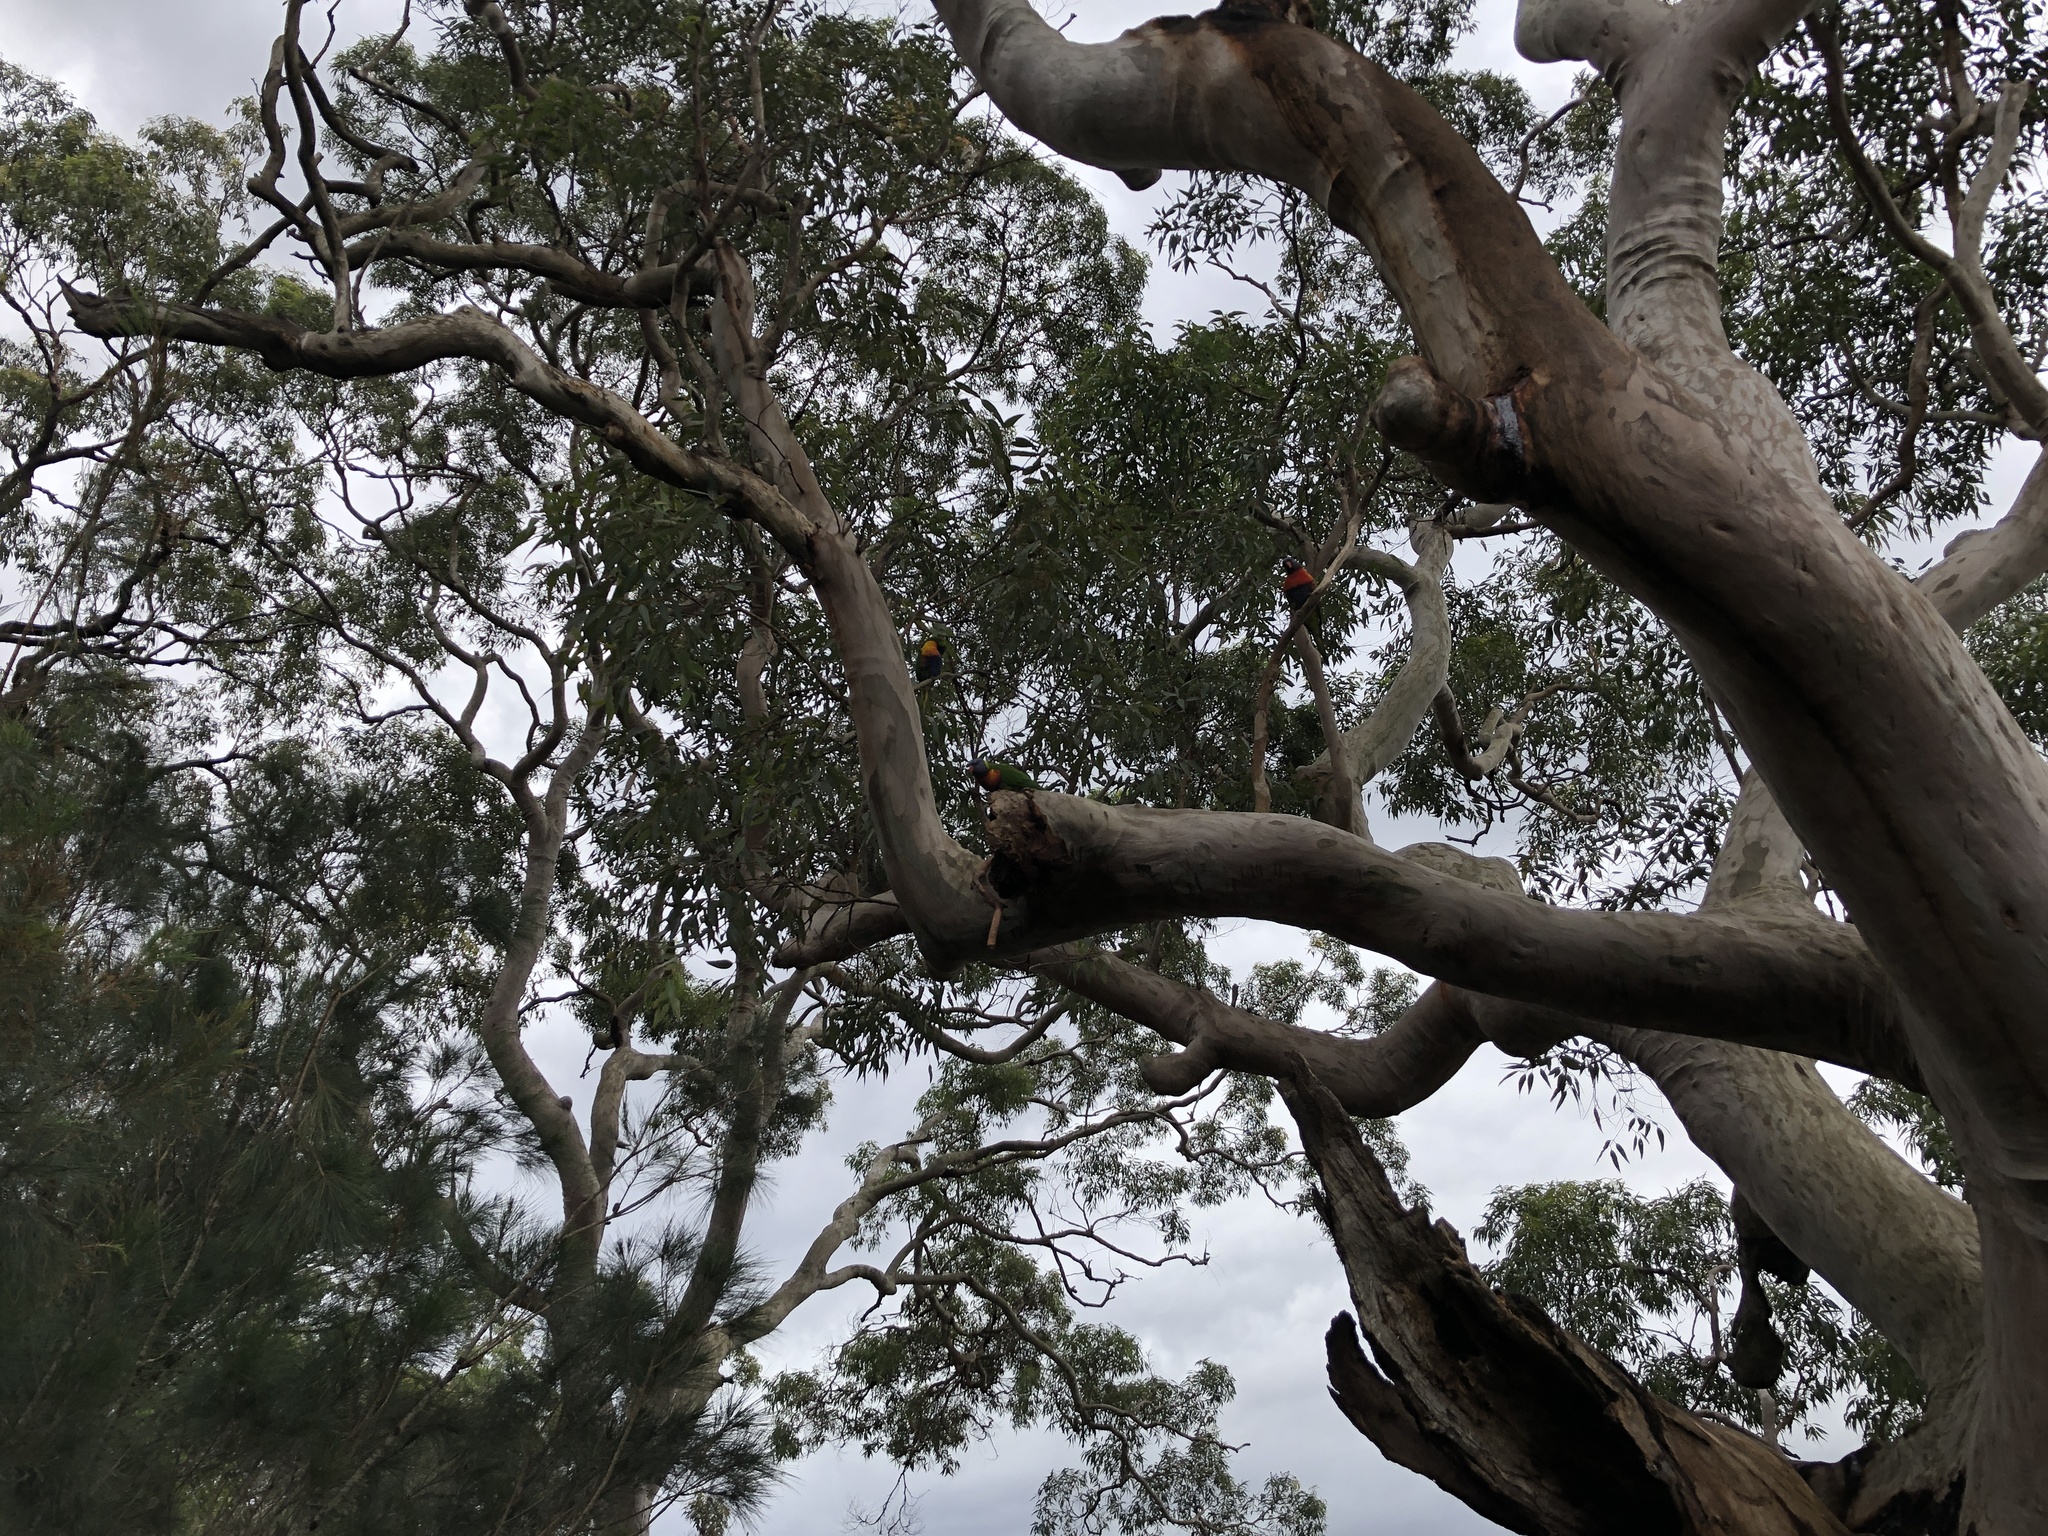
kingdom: Animalia
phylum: Chordata
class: Aves
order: Psittaciformes
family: Psittacidae
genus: Trichoglossus
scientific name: Trichoglossus haematodus
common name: Coconut lorikeet
